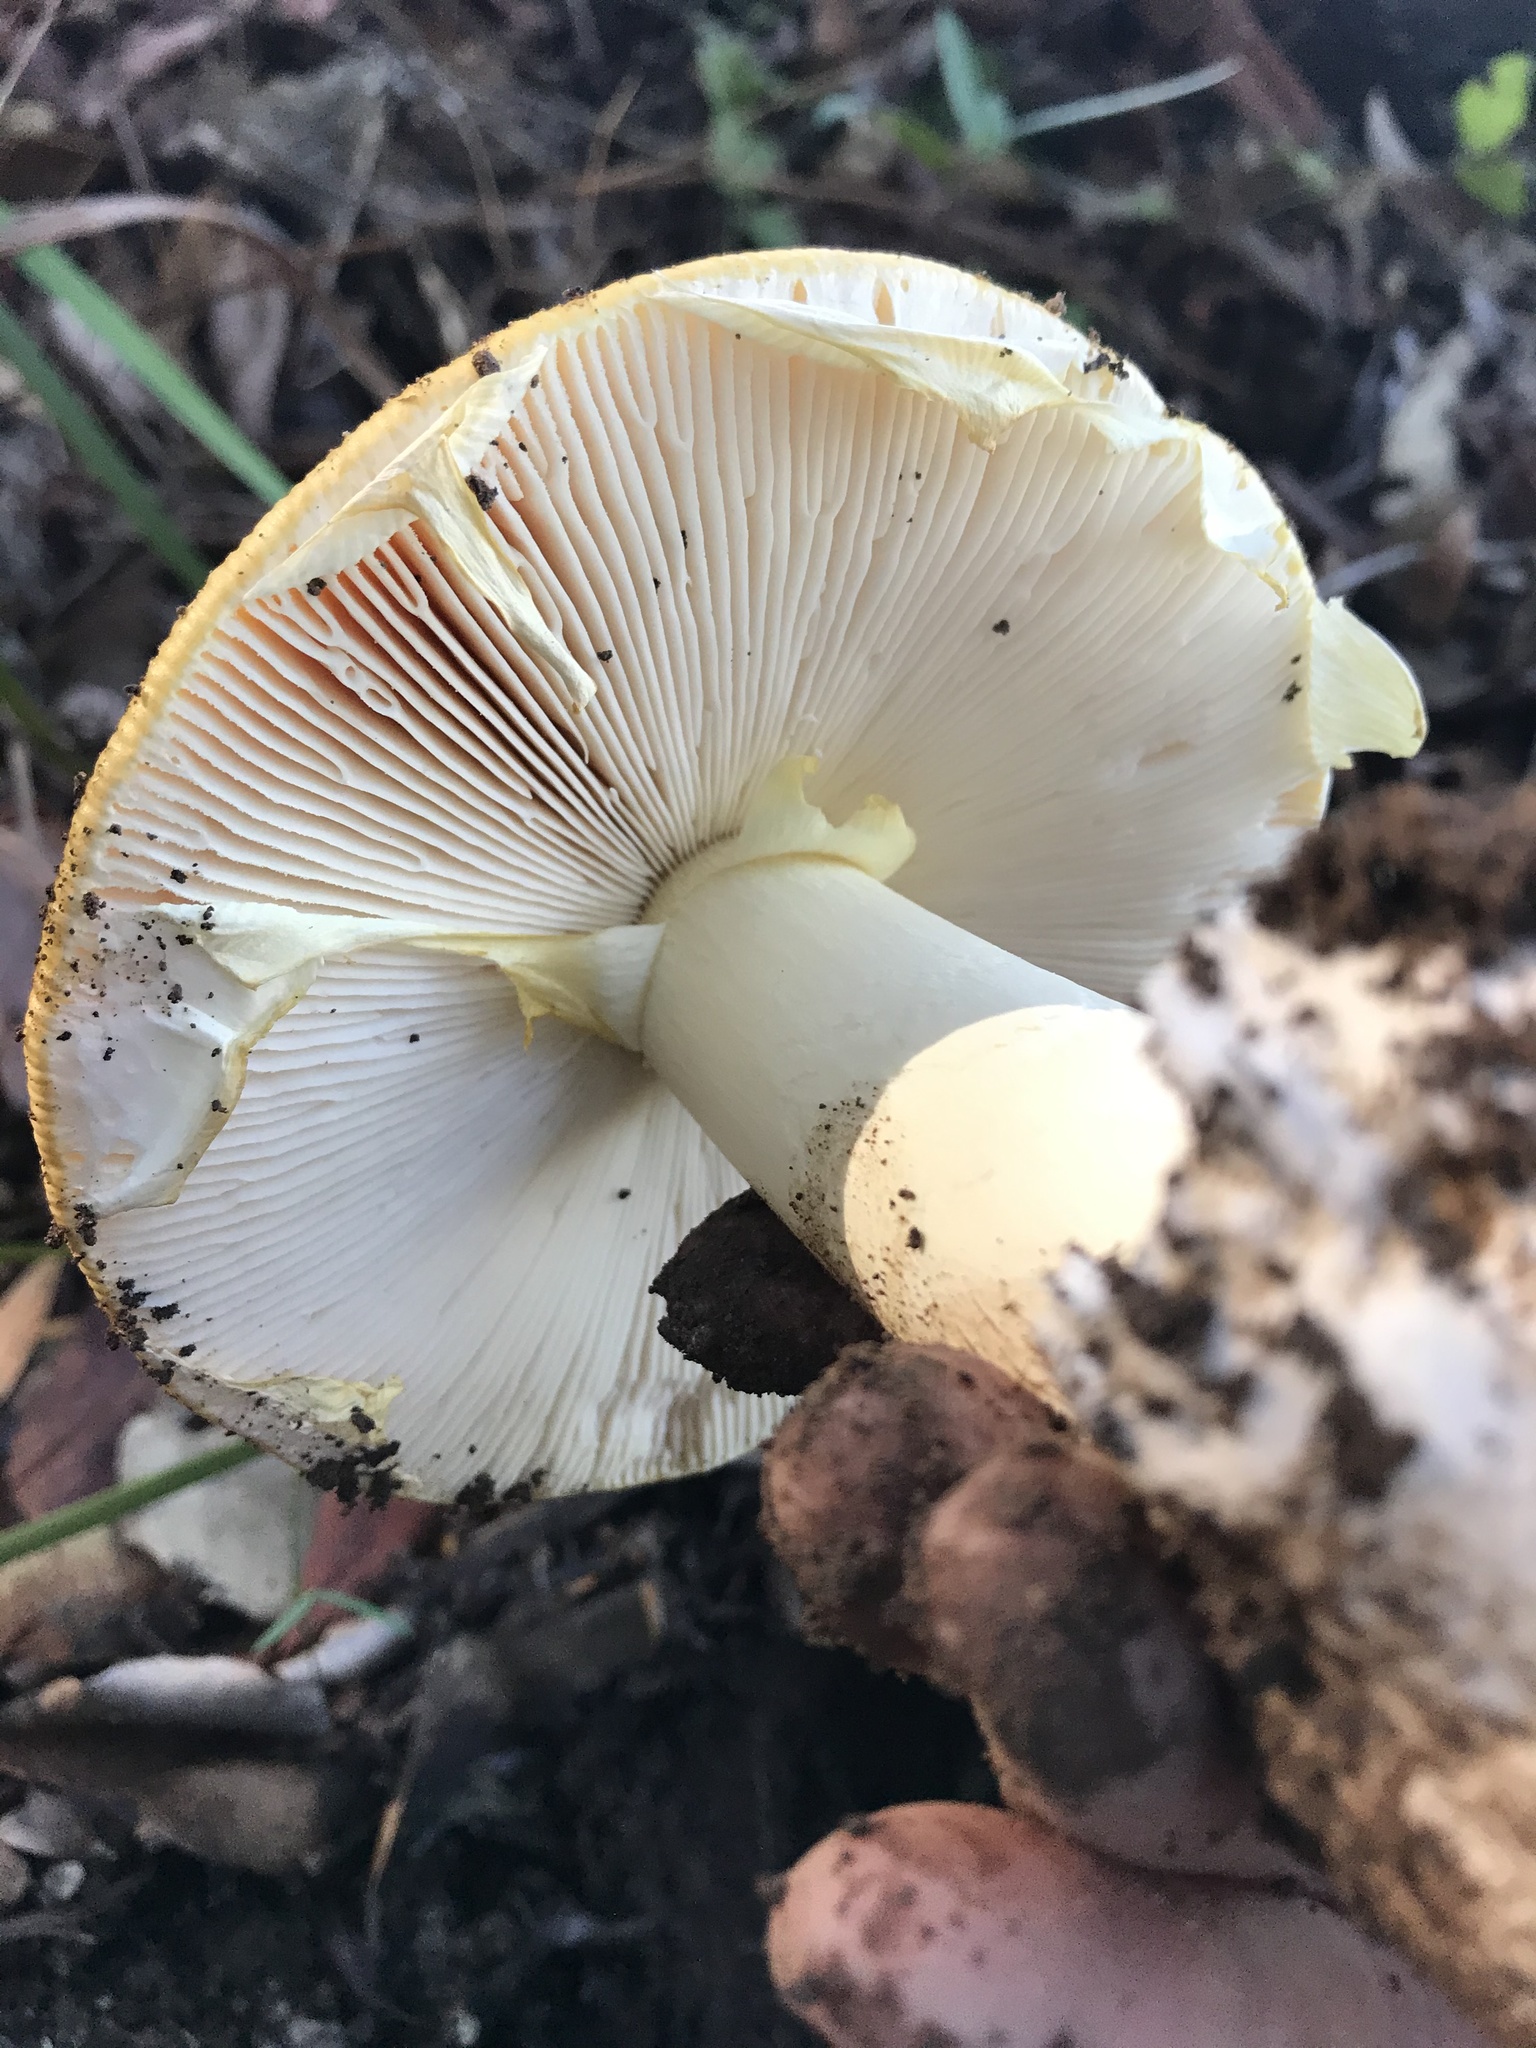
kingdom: Fungi
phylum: Basidiomycota
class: Agaricomycetes
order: Agaricales
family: Amanitaceae
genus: Amanita
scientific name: Amanita calyptroderma
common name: Coccora
